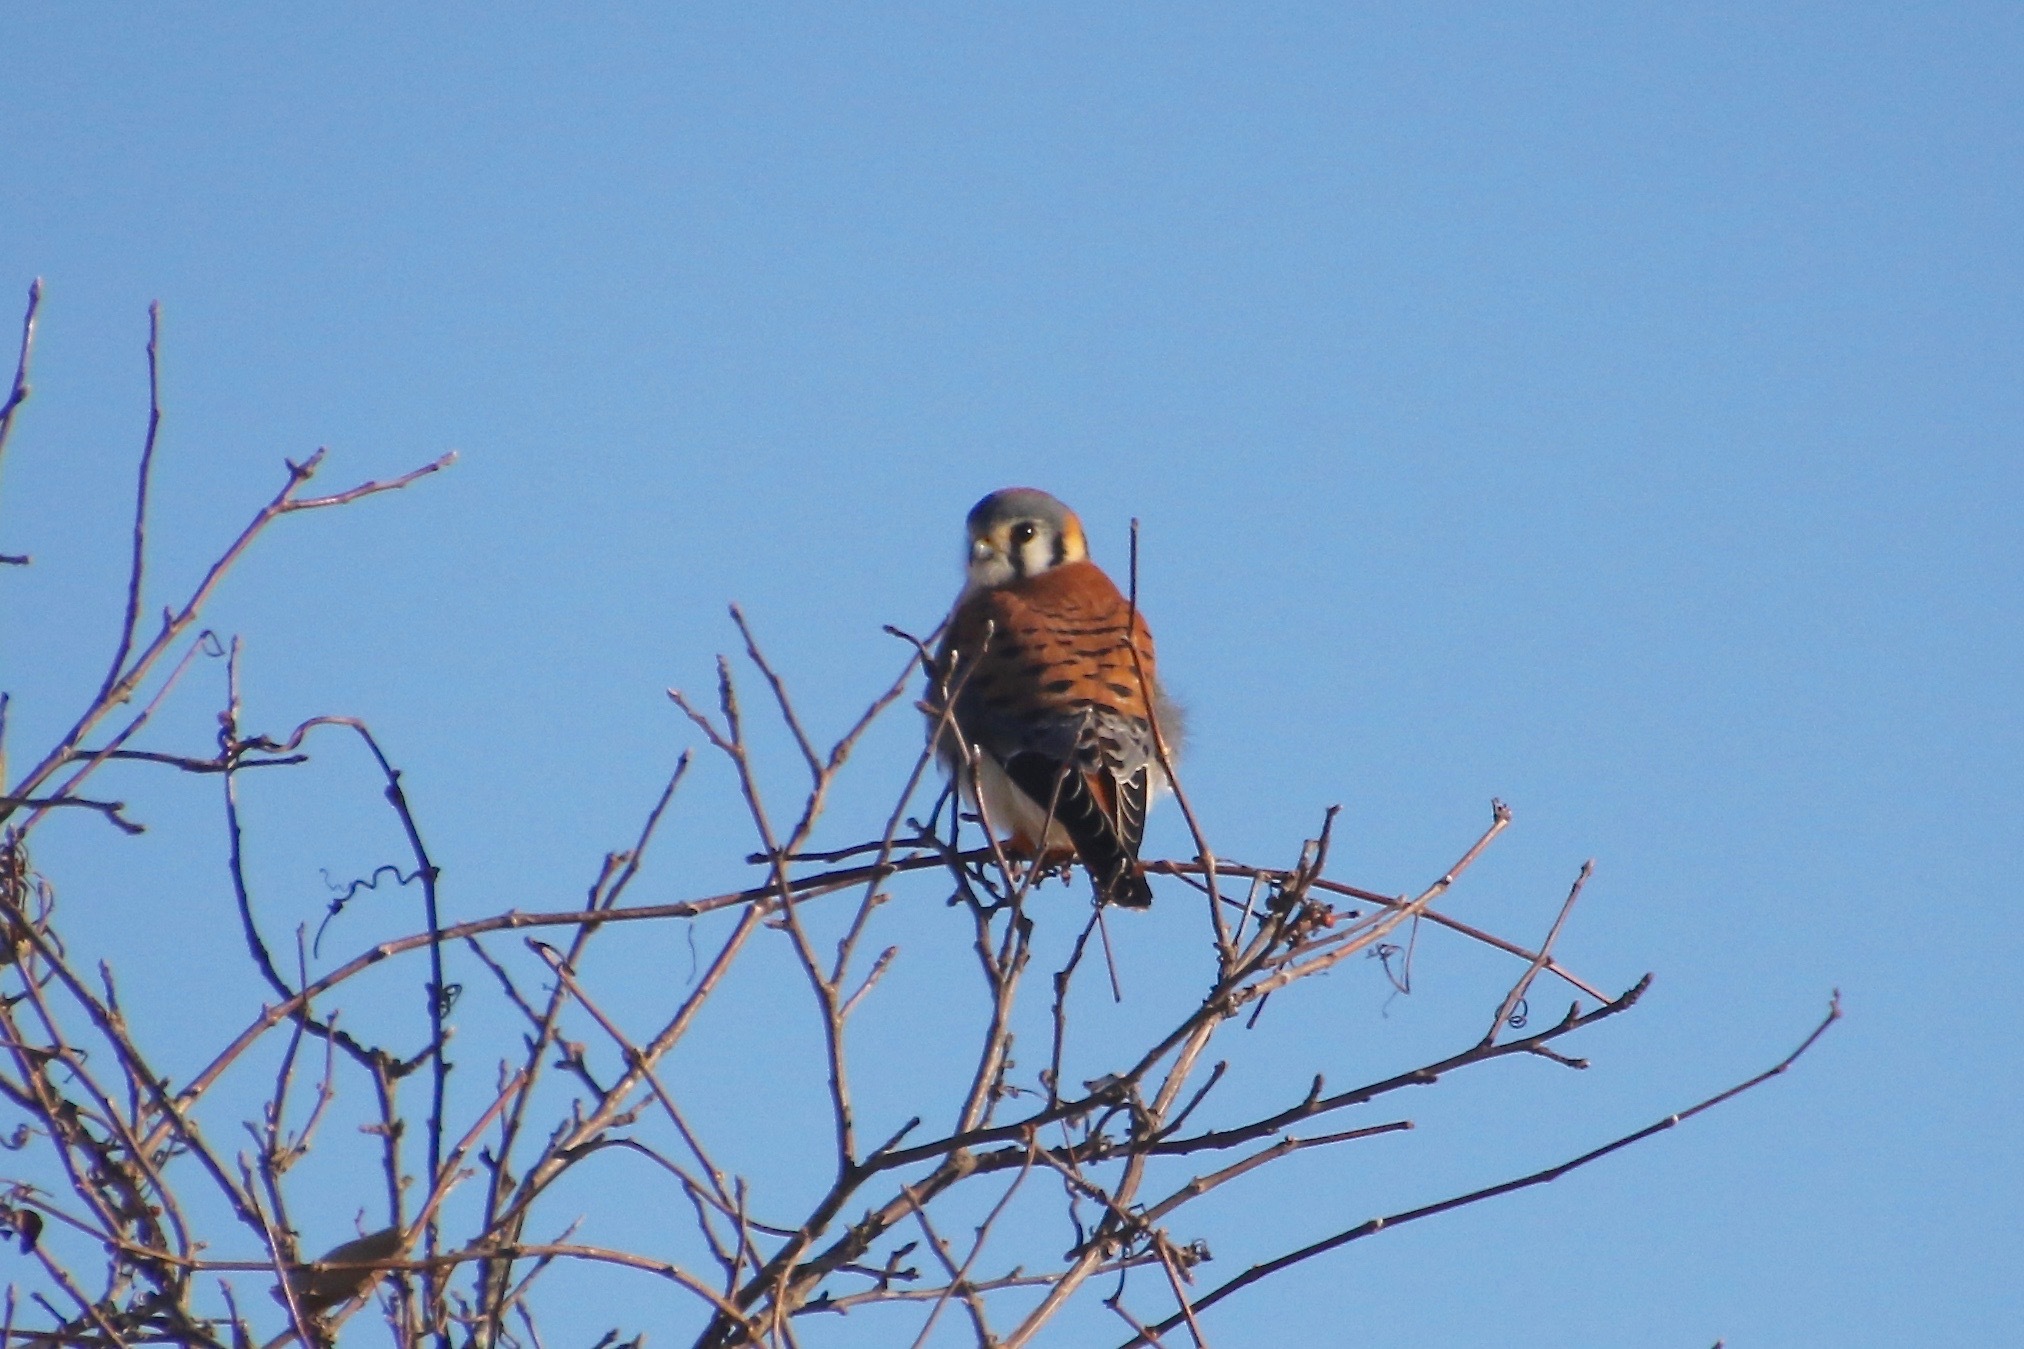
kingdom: Animalia
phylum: Chordata
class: Aves
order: Falconiformes
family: Falconidae
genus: Falco
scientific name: Falco sparverius
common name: American kestrel
